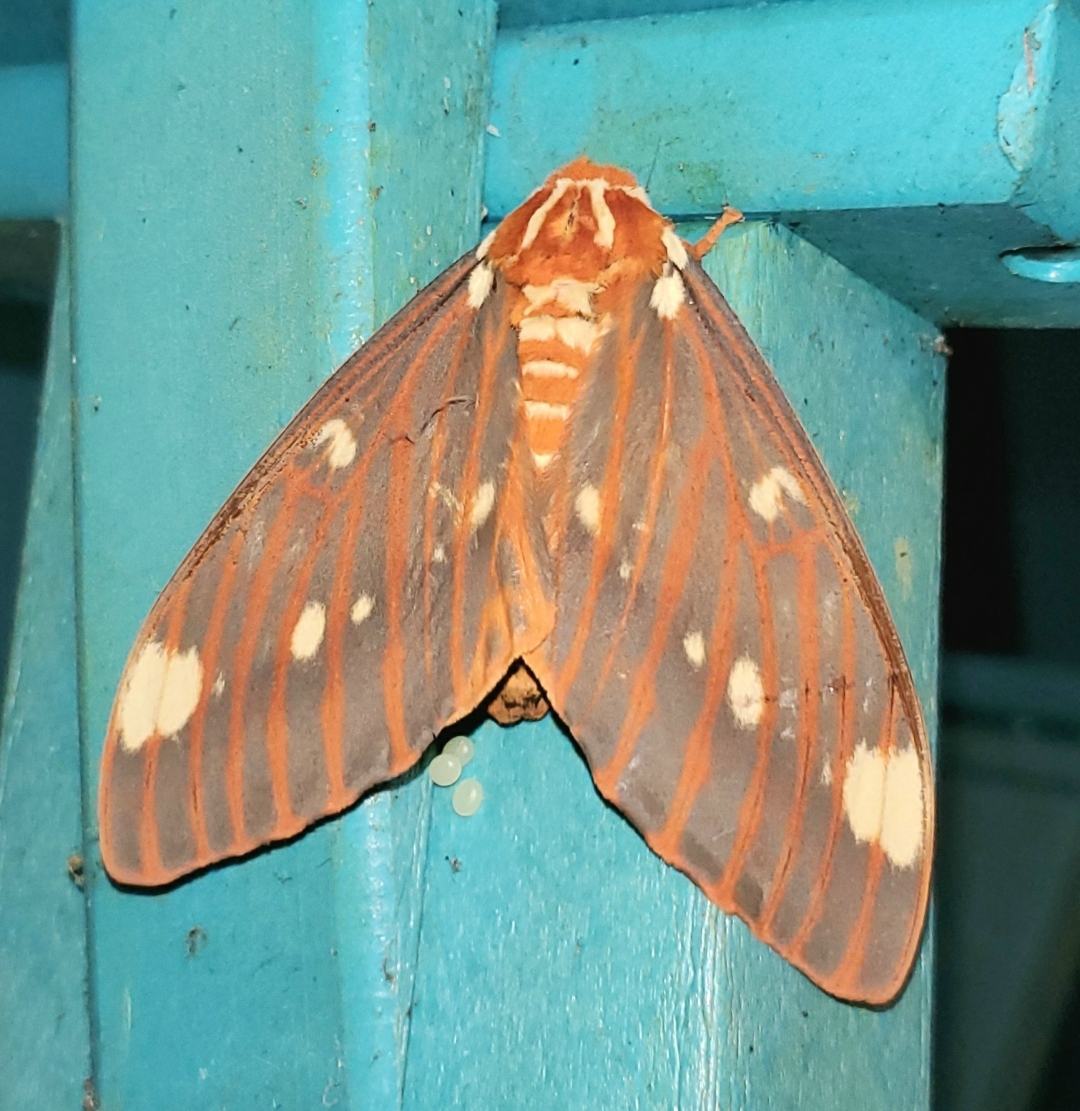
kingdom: Animalia
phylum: Arthropoda
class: Insecta
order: Lepidoptera
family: Saturniidae
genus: Citheronia
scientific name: Citheronia regalis
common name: Hickory horned devil
